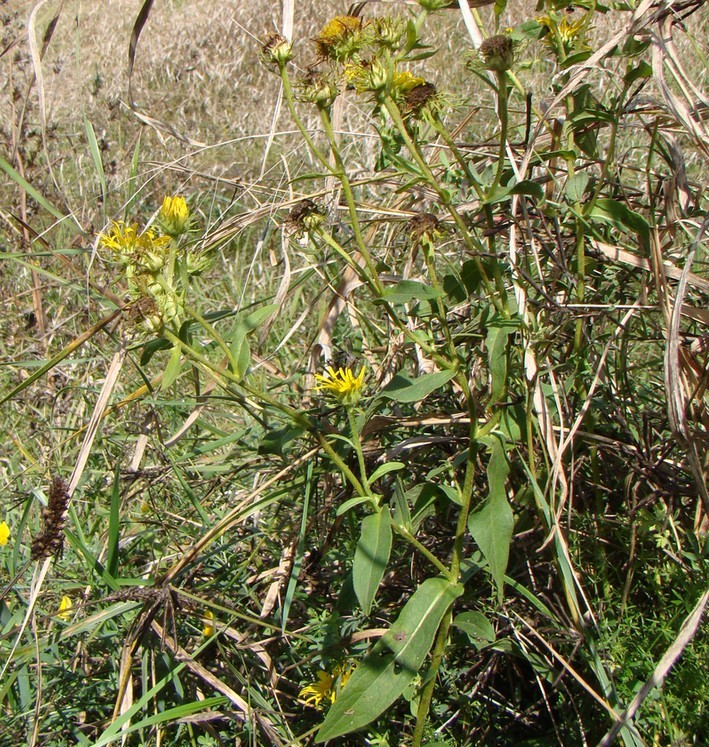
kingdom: Plantae
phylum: Tracheophyta
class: Magnoliopsida
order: Asterales
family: Asteraceae
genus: Pentanema
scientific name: Pentanema britannicum
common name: British elecampane
